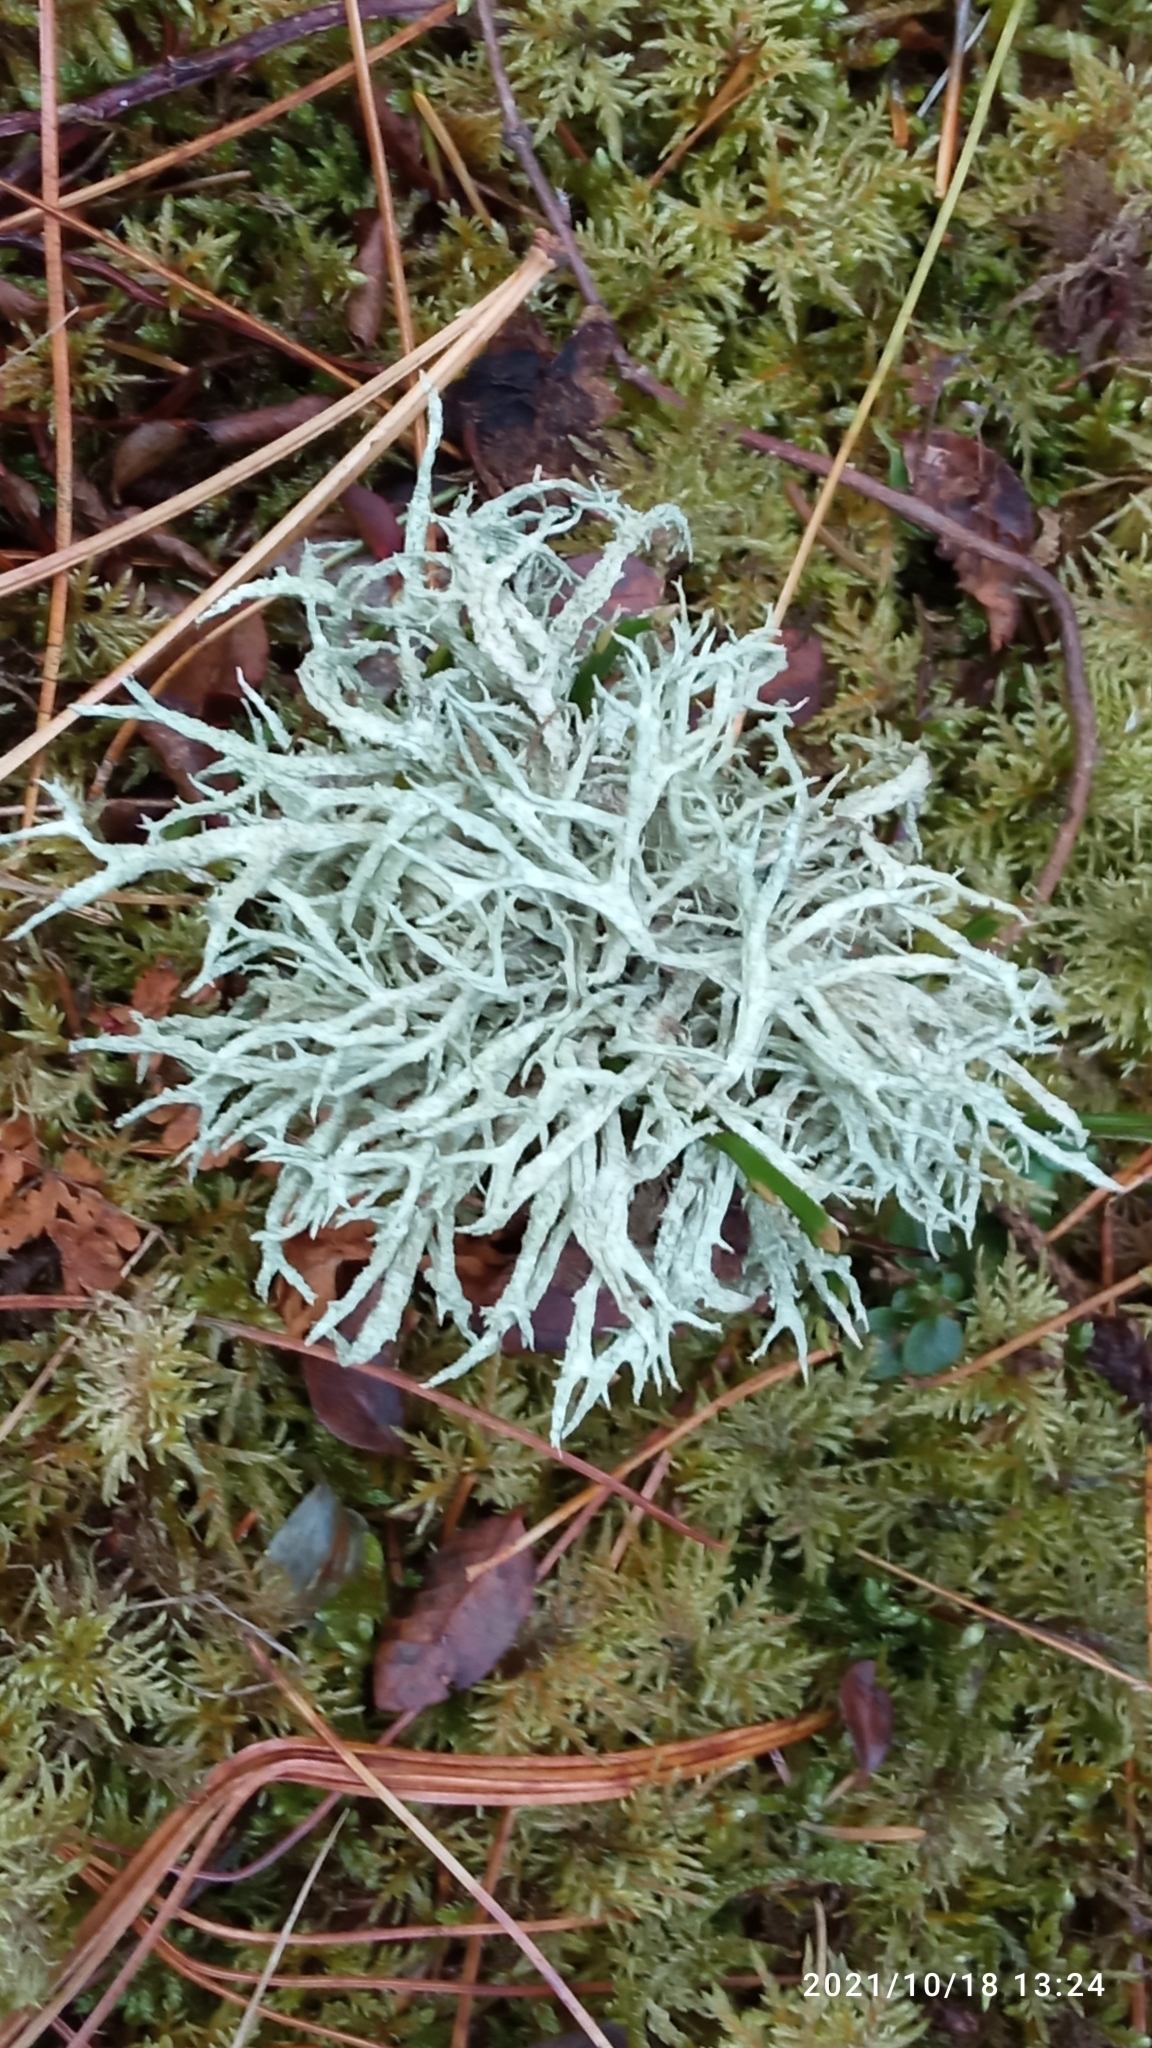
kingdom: Fungi
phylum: Ascomycota
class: Lecanoromycetes
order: Lecanorales
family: Parmeliaceae
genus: Evernia
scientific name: Evernia mesomorpha
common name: Boreal oak moss lichen
